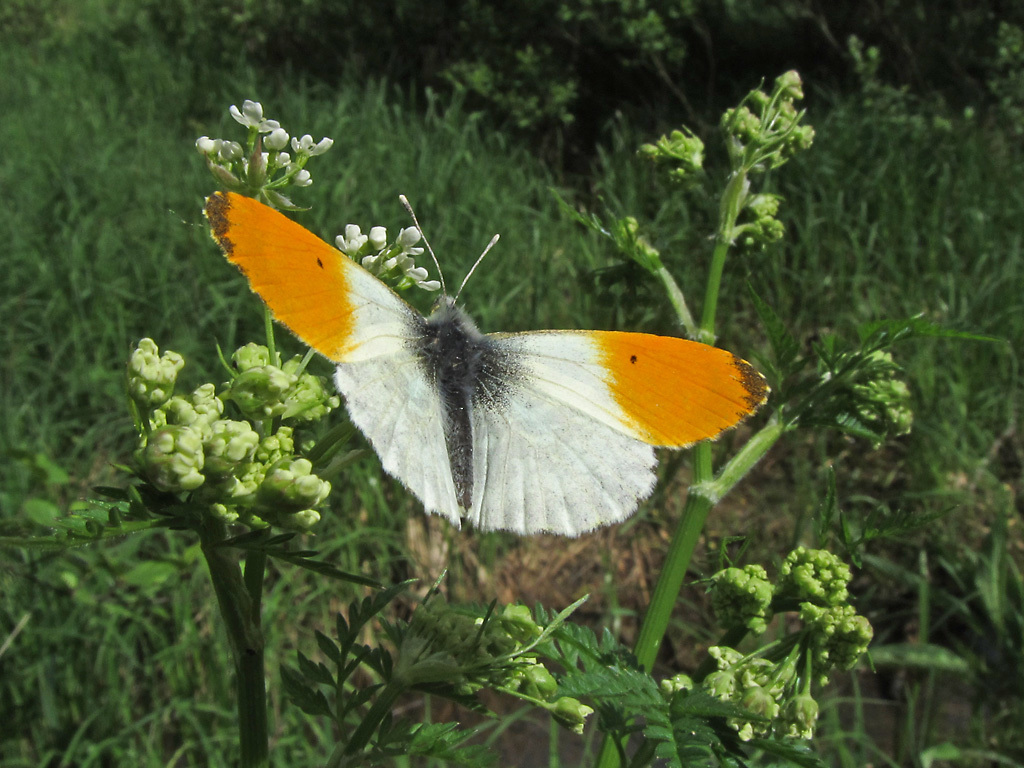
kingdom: Animalia
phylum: Arthropoda
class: Insecta
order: Lepidoptera
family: Pieridae
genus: Anthocharis
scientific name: Anthocharis cardamines
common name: Orange-tip
